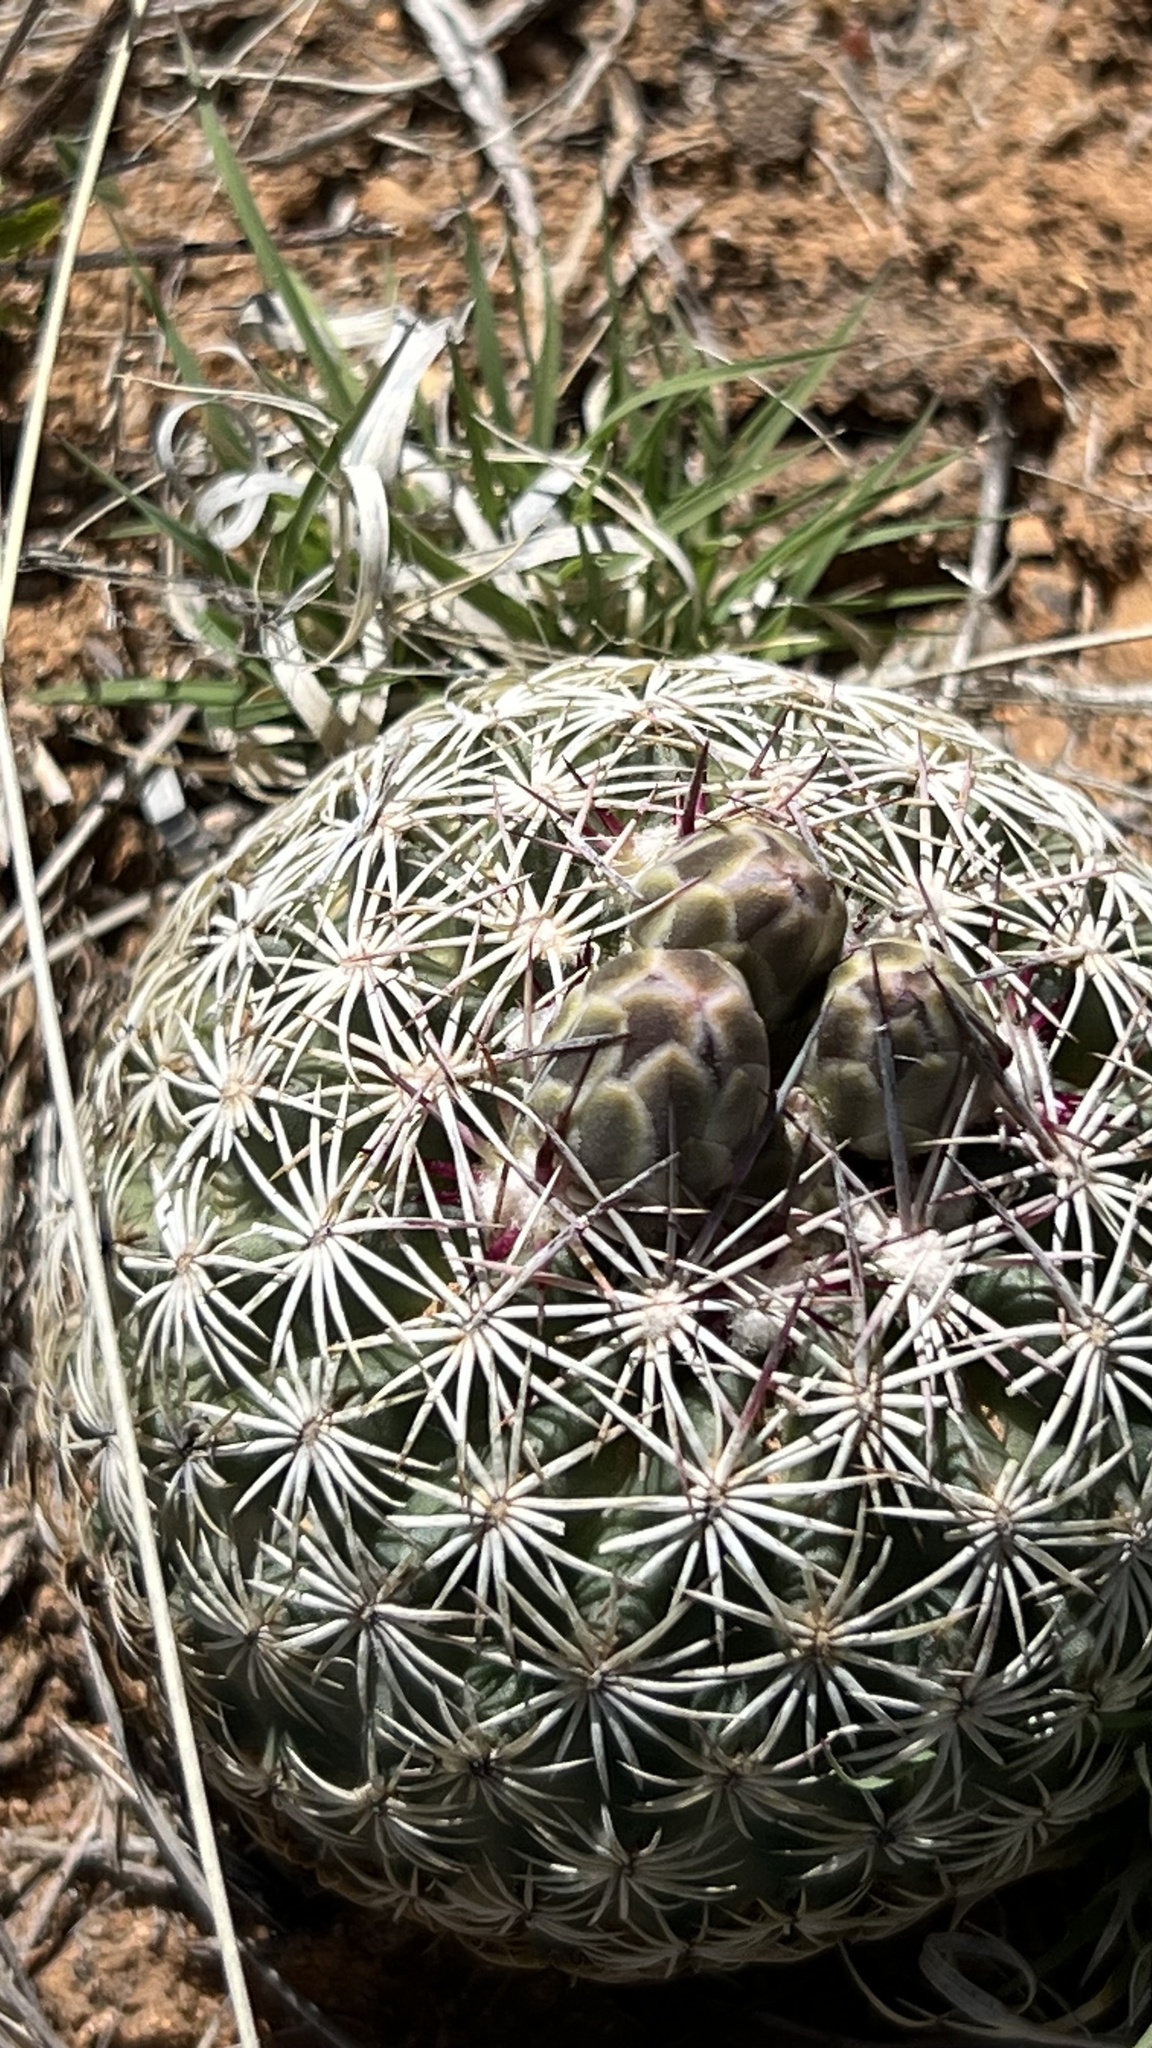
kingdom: Plantae
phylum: Tracheophyta
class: Magnoliopsida
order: Caryophyllales
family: Cactaceae
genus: Sclerocactus
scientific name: Sclerocactus johnsonii
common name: Eight-spine fishhook cactus
